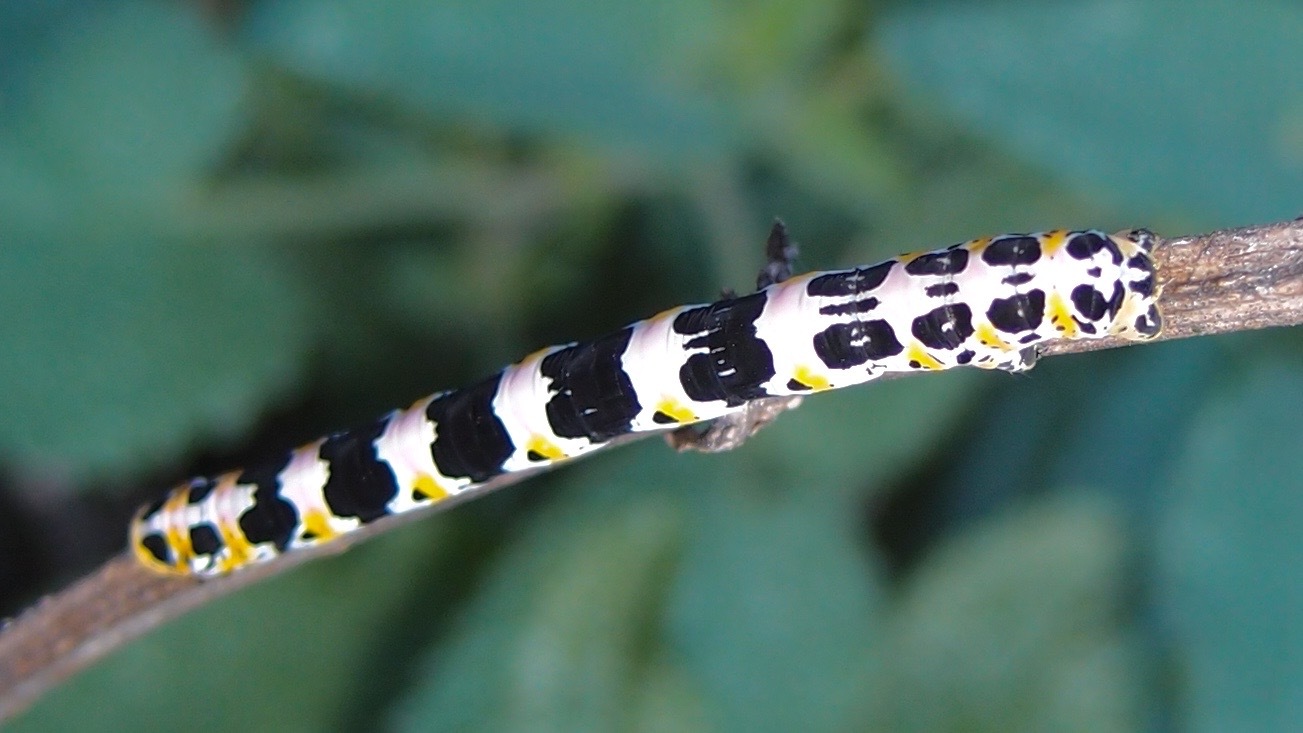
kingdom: Animalia
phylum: Arthropoda
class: Insecta
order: Lepidoptera
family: Geometridae
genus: Meris
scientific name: Meris paradoxa
